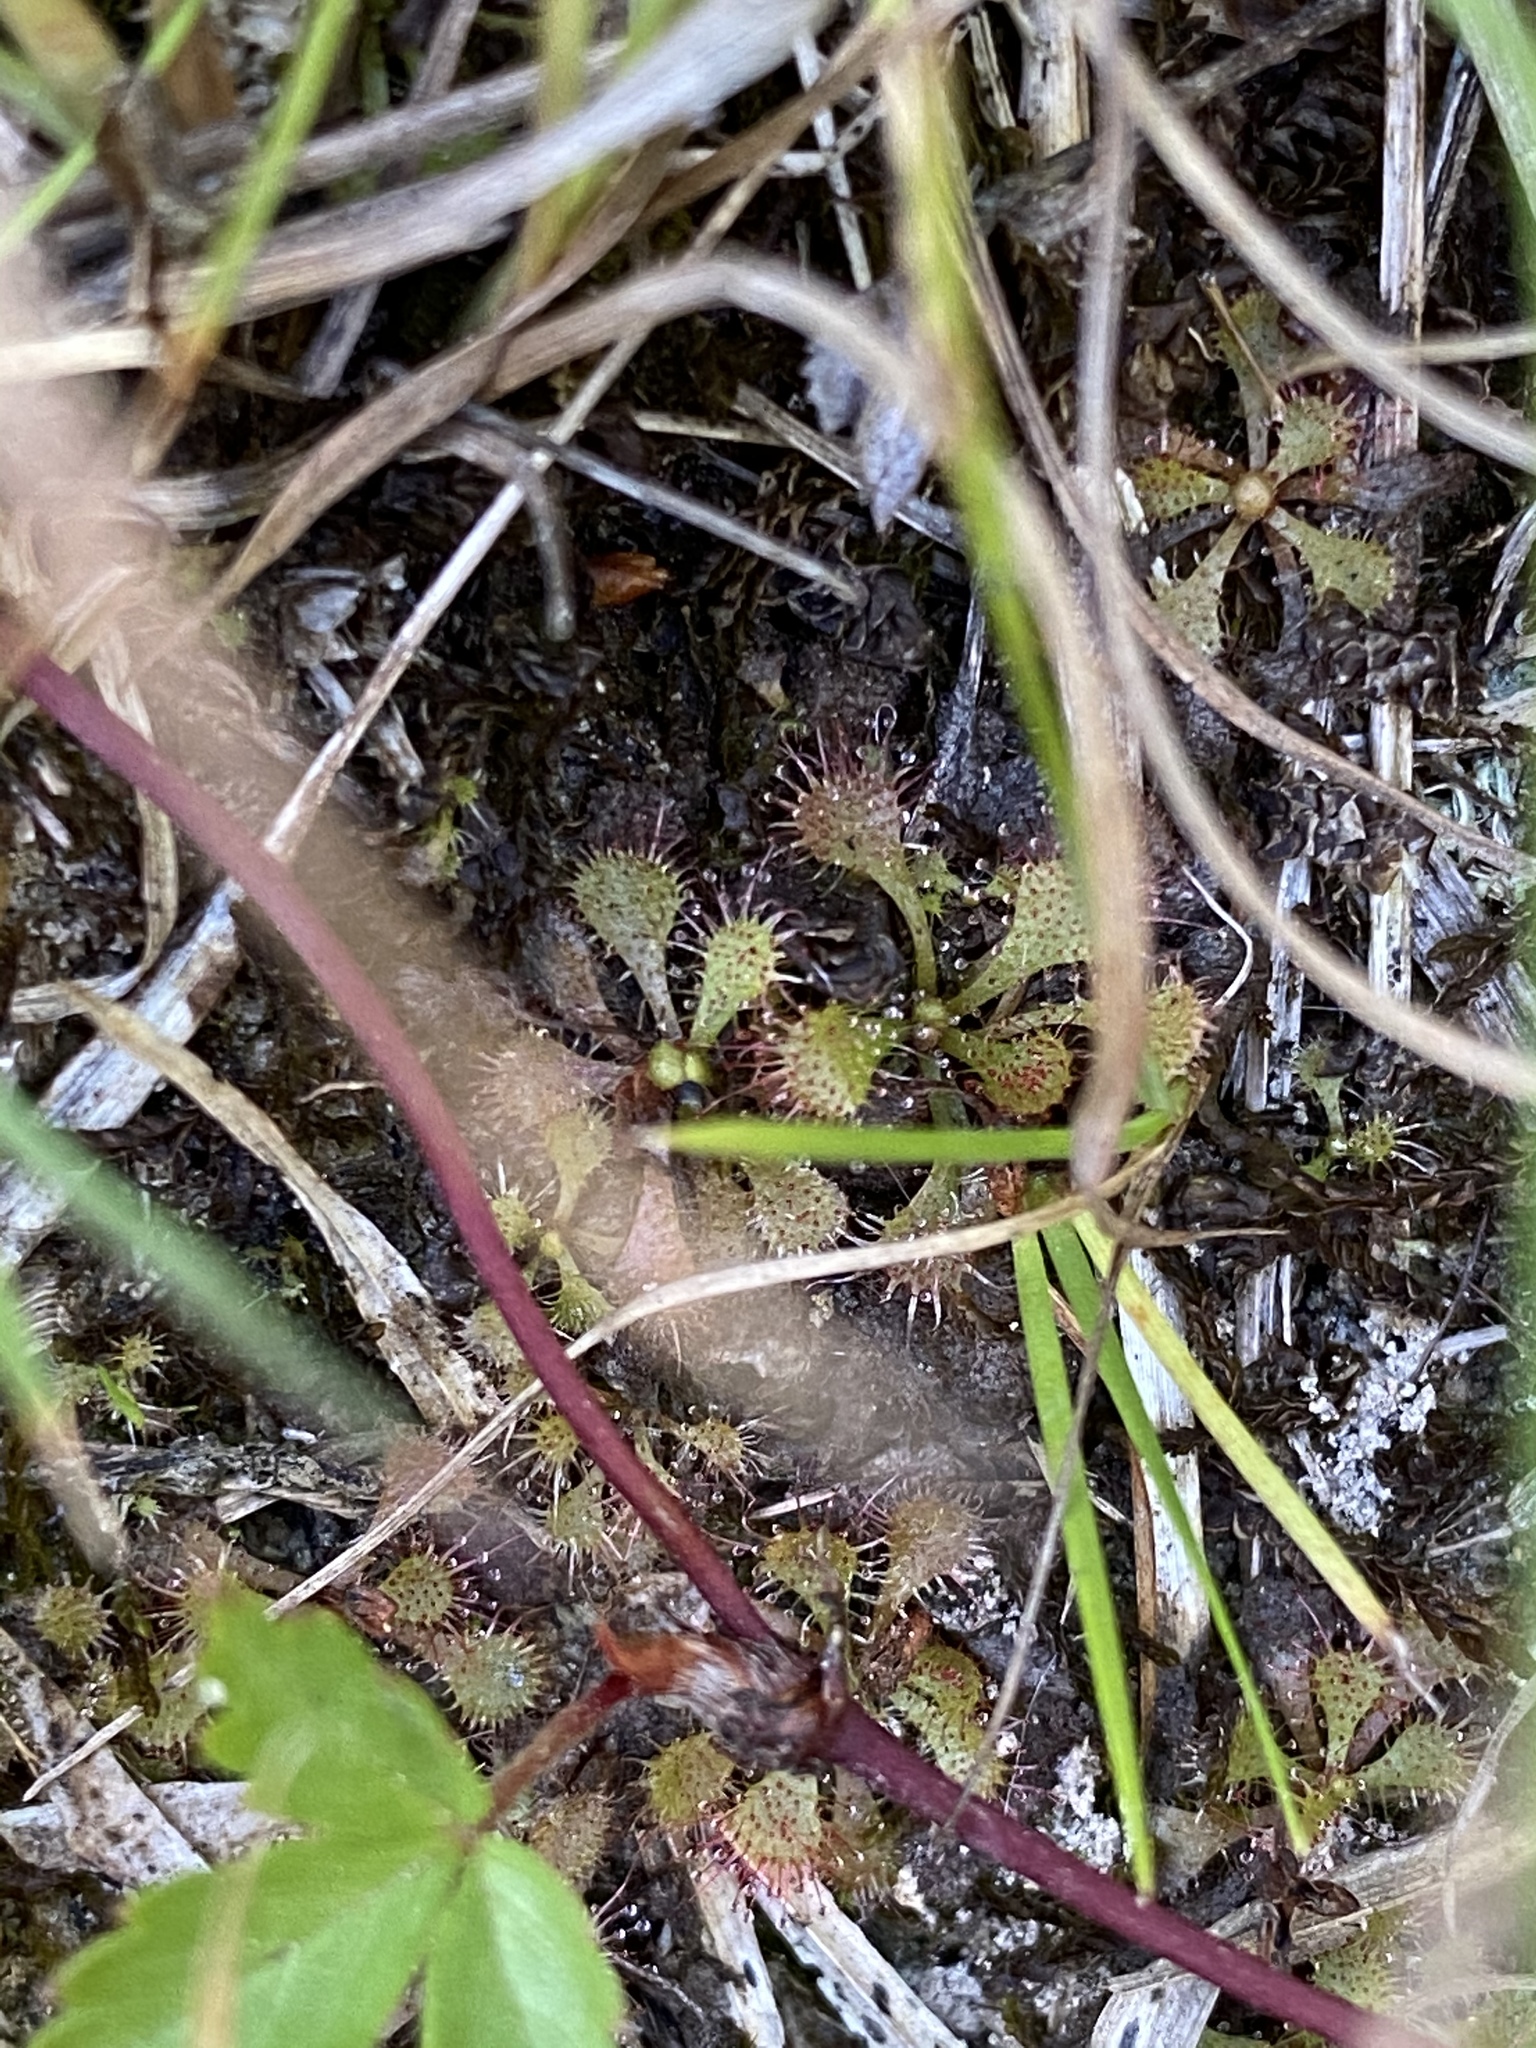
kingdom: Plantae
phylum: Tracheophyta
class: Magnoliopsida
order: Caryophyllales
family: Droseraceae
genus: Drosera
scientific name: Drosera brevifolia
